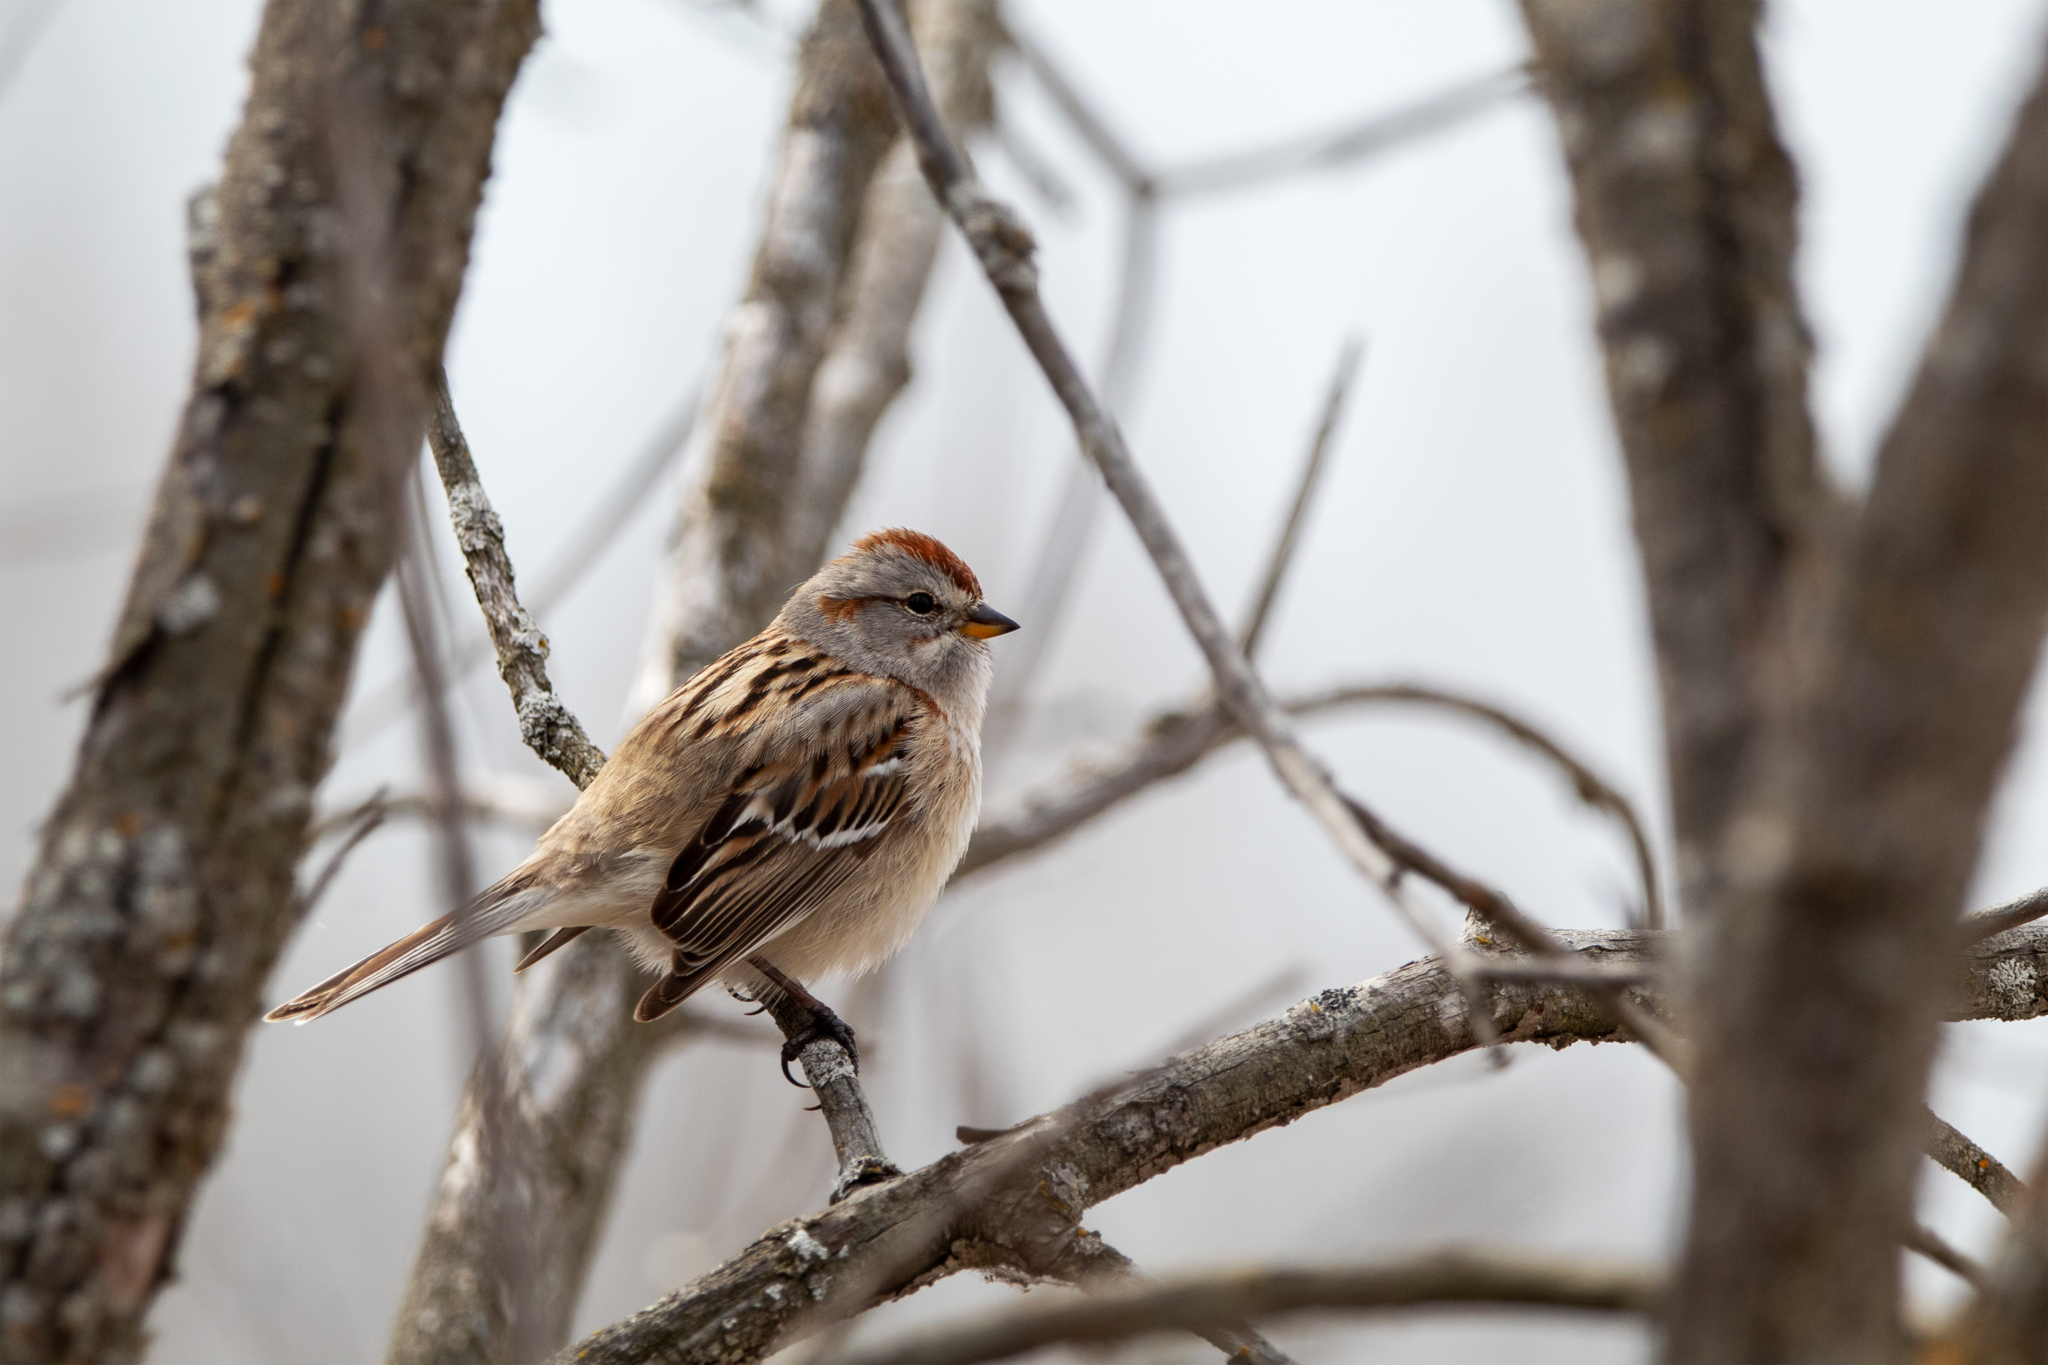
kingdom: Animalia
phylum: Chordata
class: Aves
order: Passeriformes
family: Passerellidae
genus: Spizelloides
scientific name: Spizelloides arborea
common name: American tree sparrow
